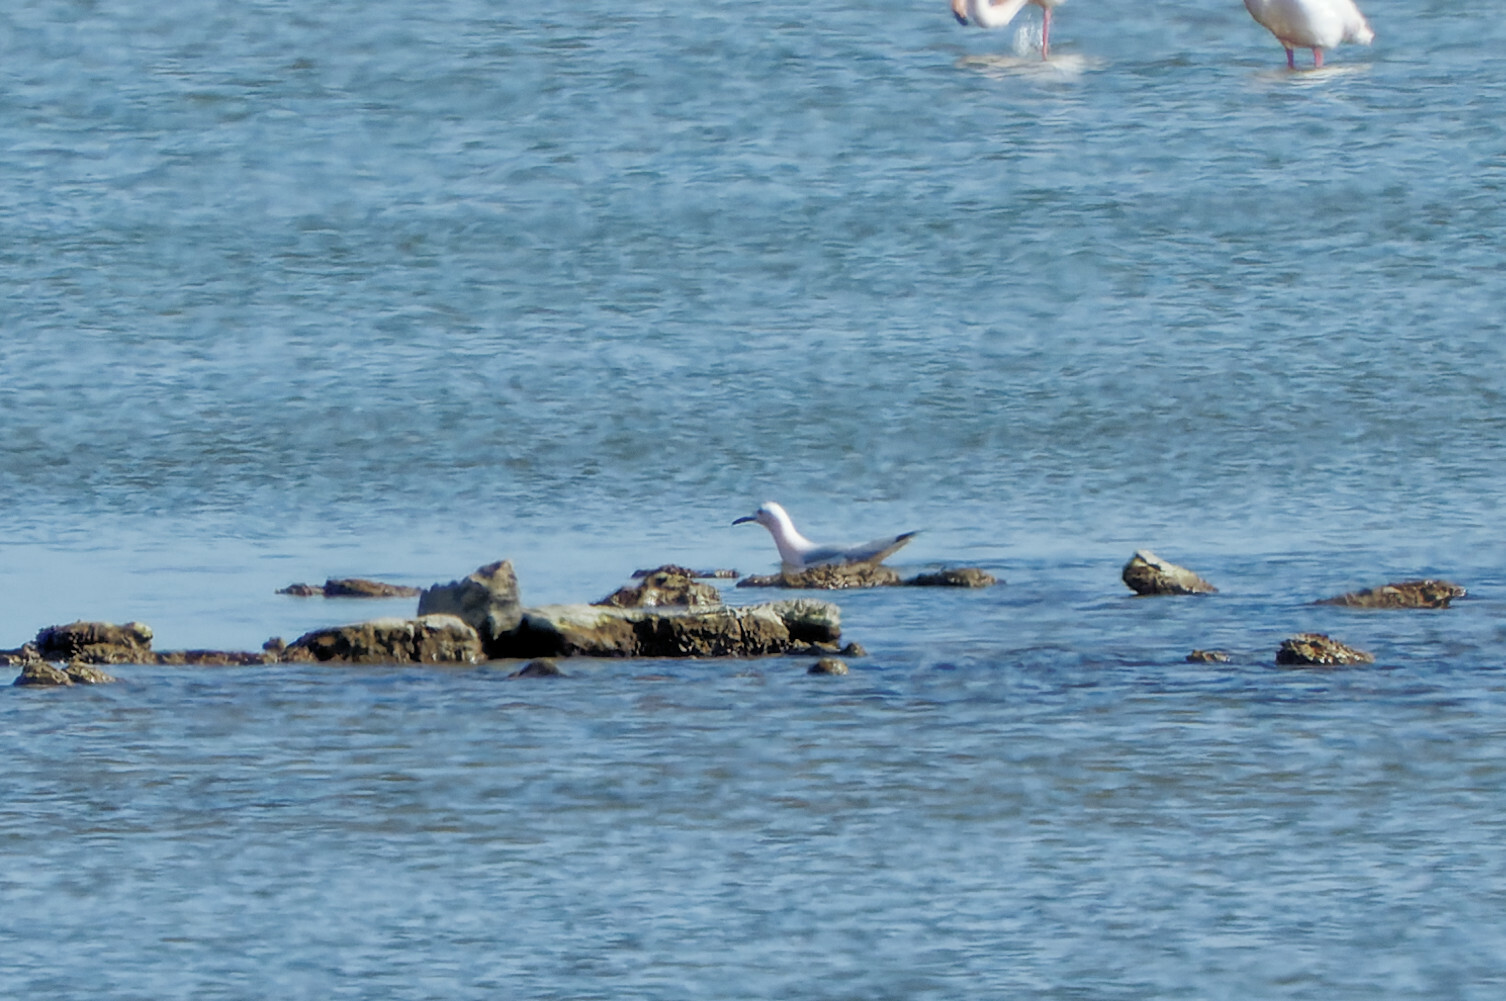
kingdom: Animalia
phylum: Chordata
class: Aves
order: Charadriiformes
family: Laridae
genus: Chroicocephalus
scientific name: Chroicocephalus genei
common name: Slender-billed gull
